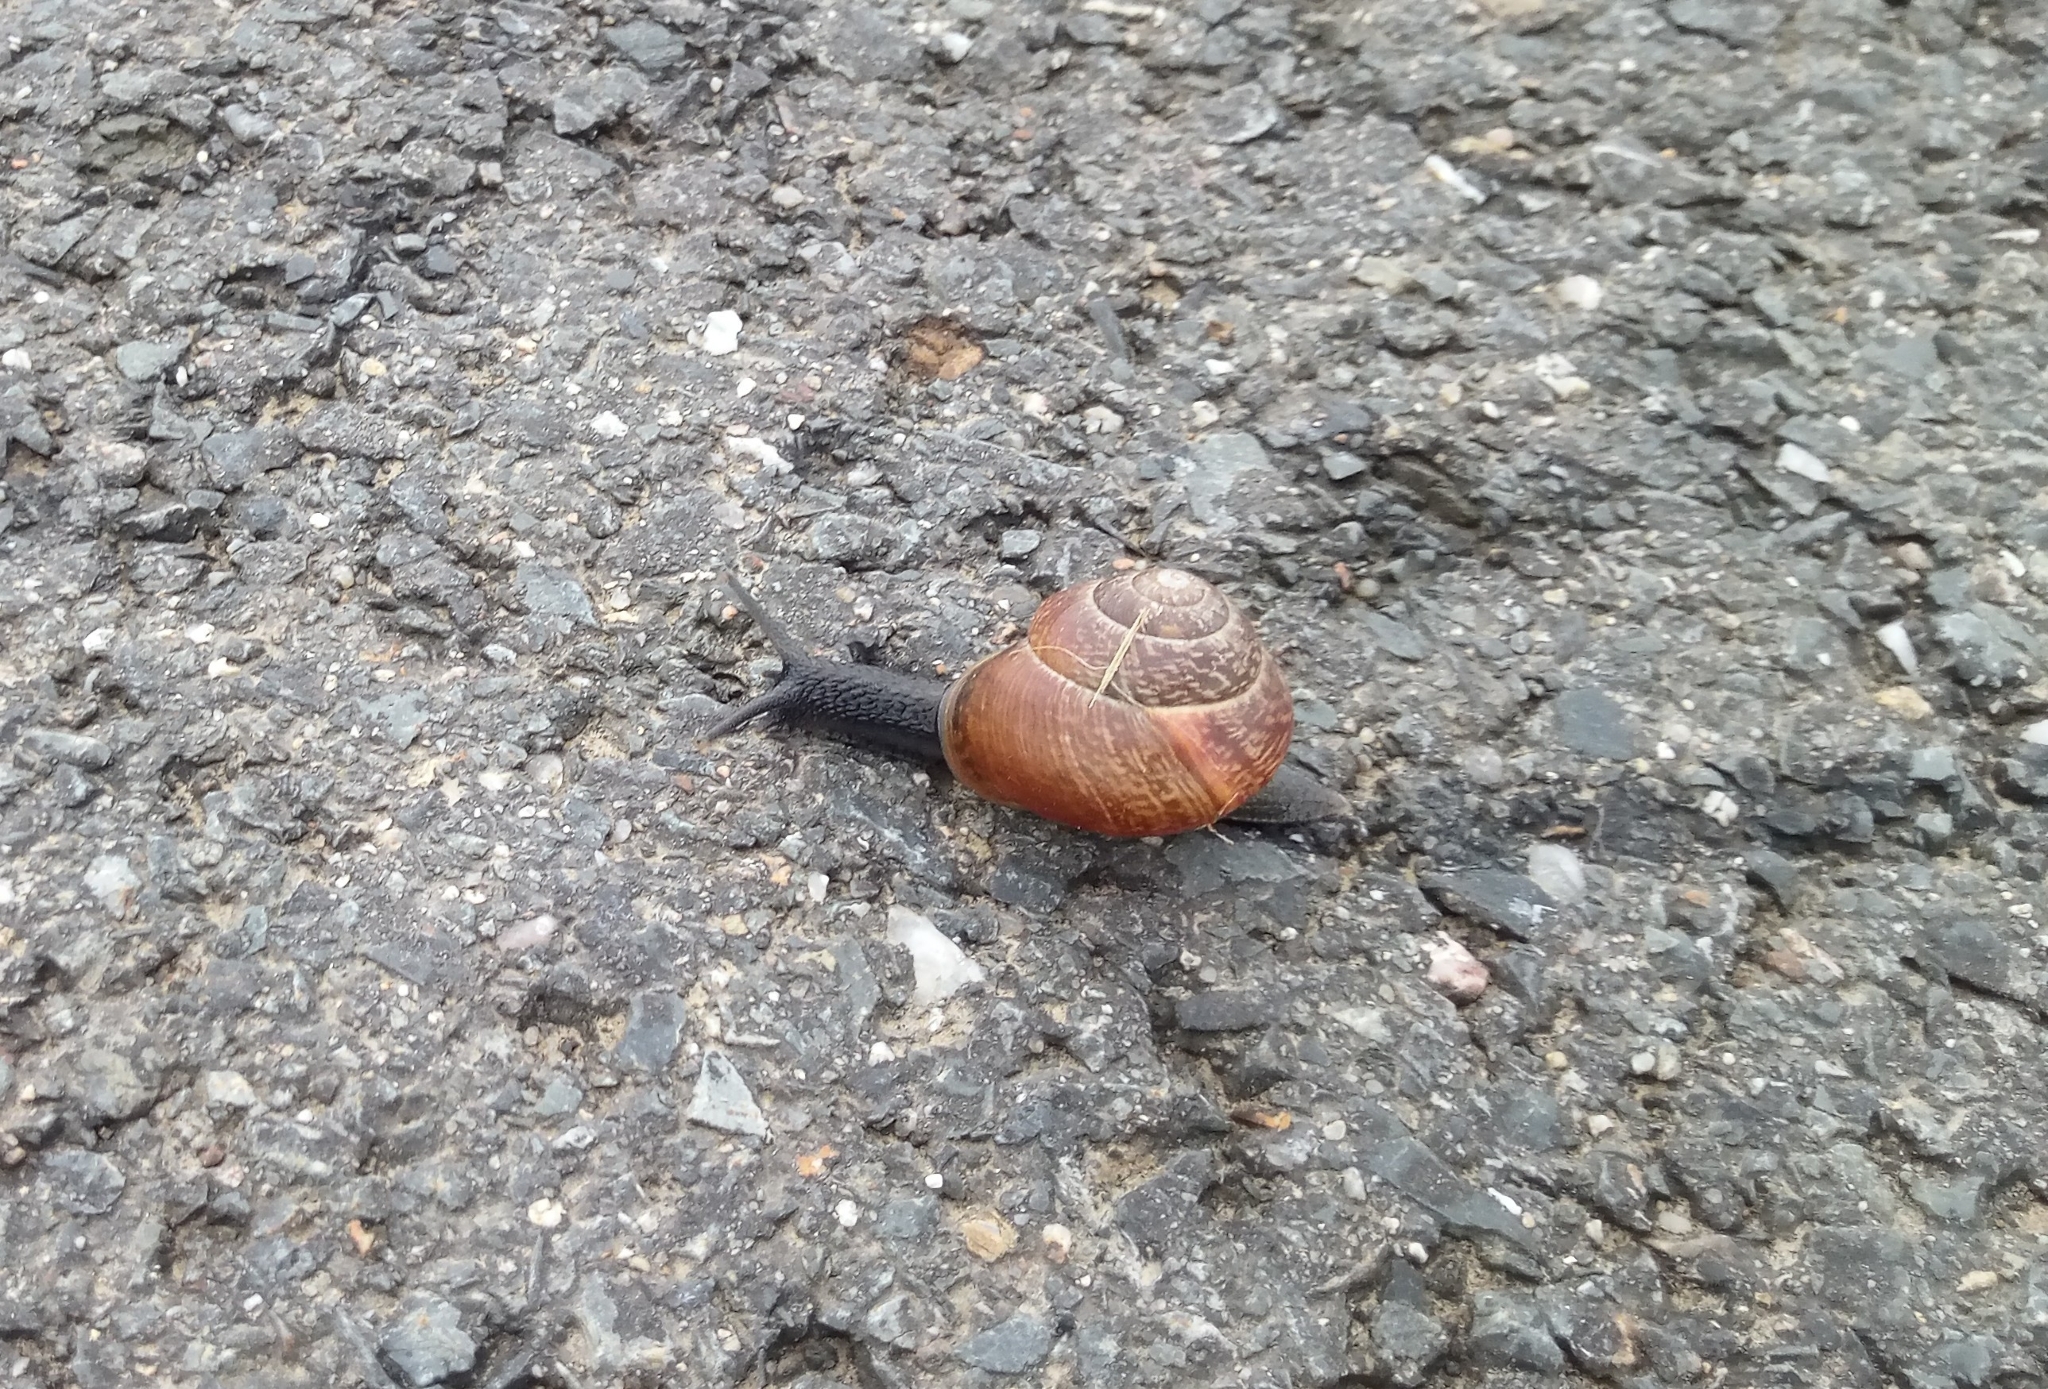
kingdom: Animalia
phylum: Mollusca
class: Gastropoda
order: Stylommatophora
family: Helicidae
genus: Arianta
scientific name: Arianta arbustorum
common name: Copse snail
